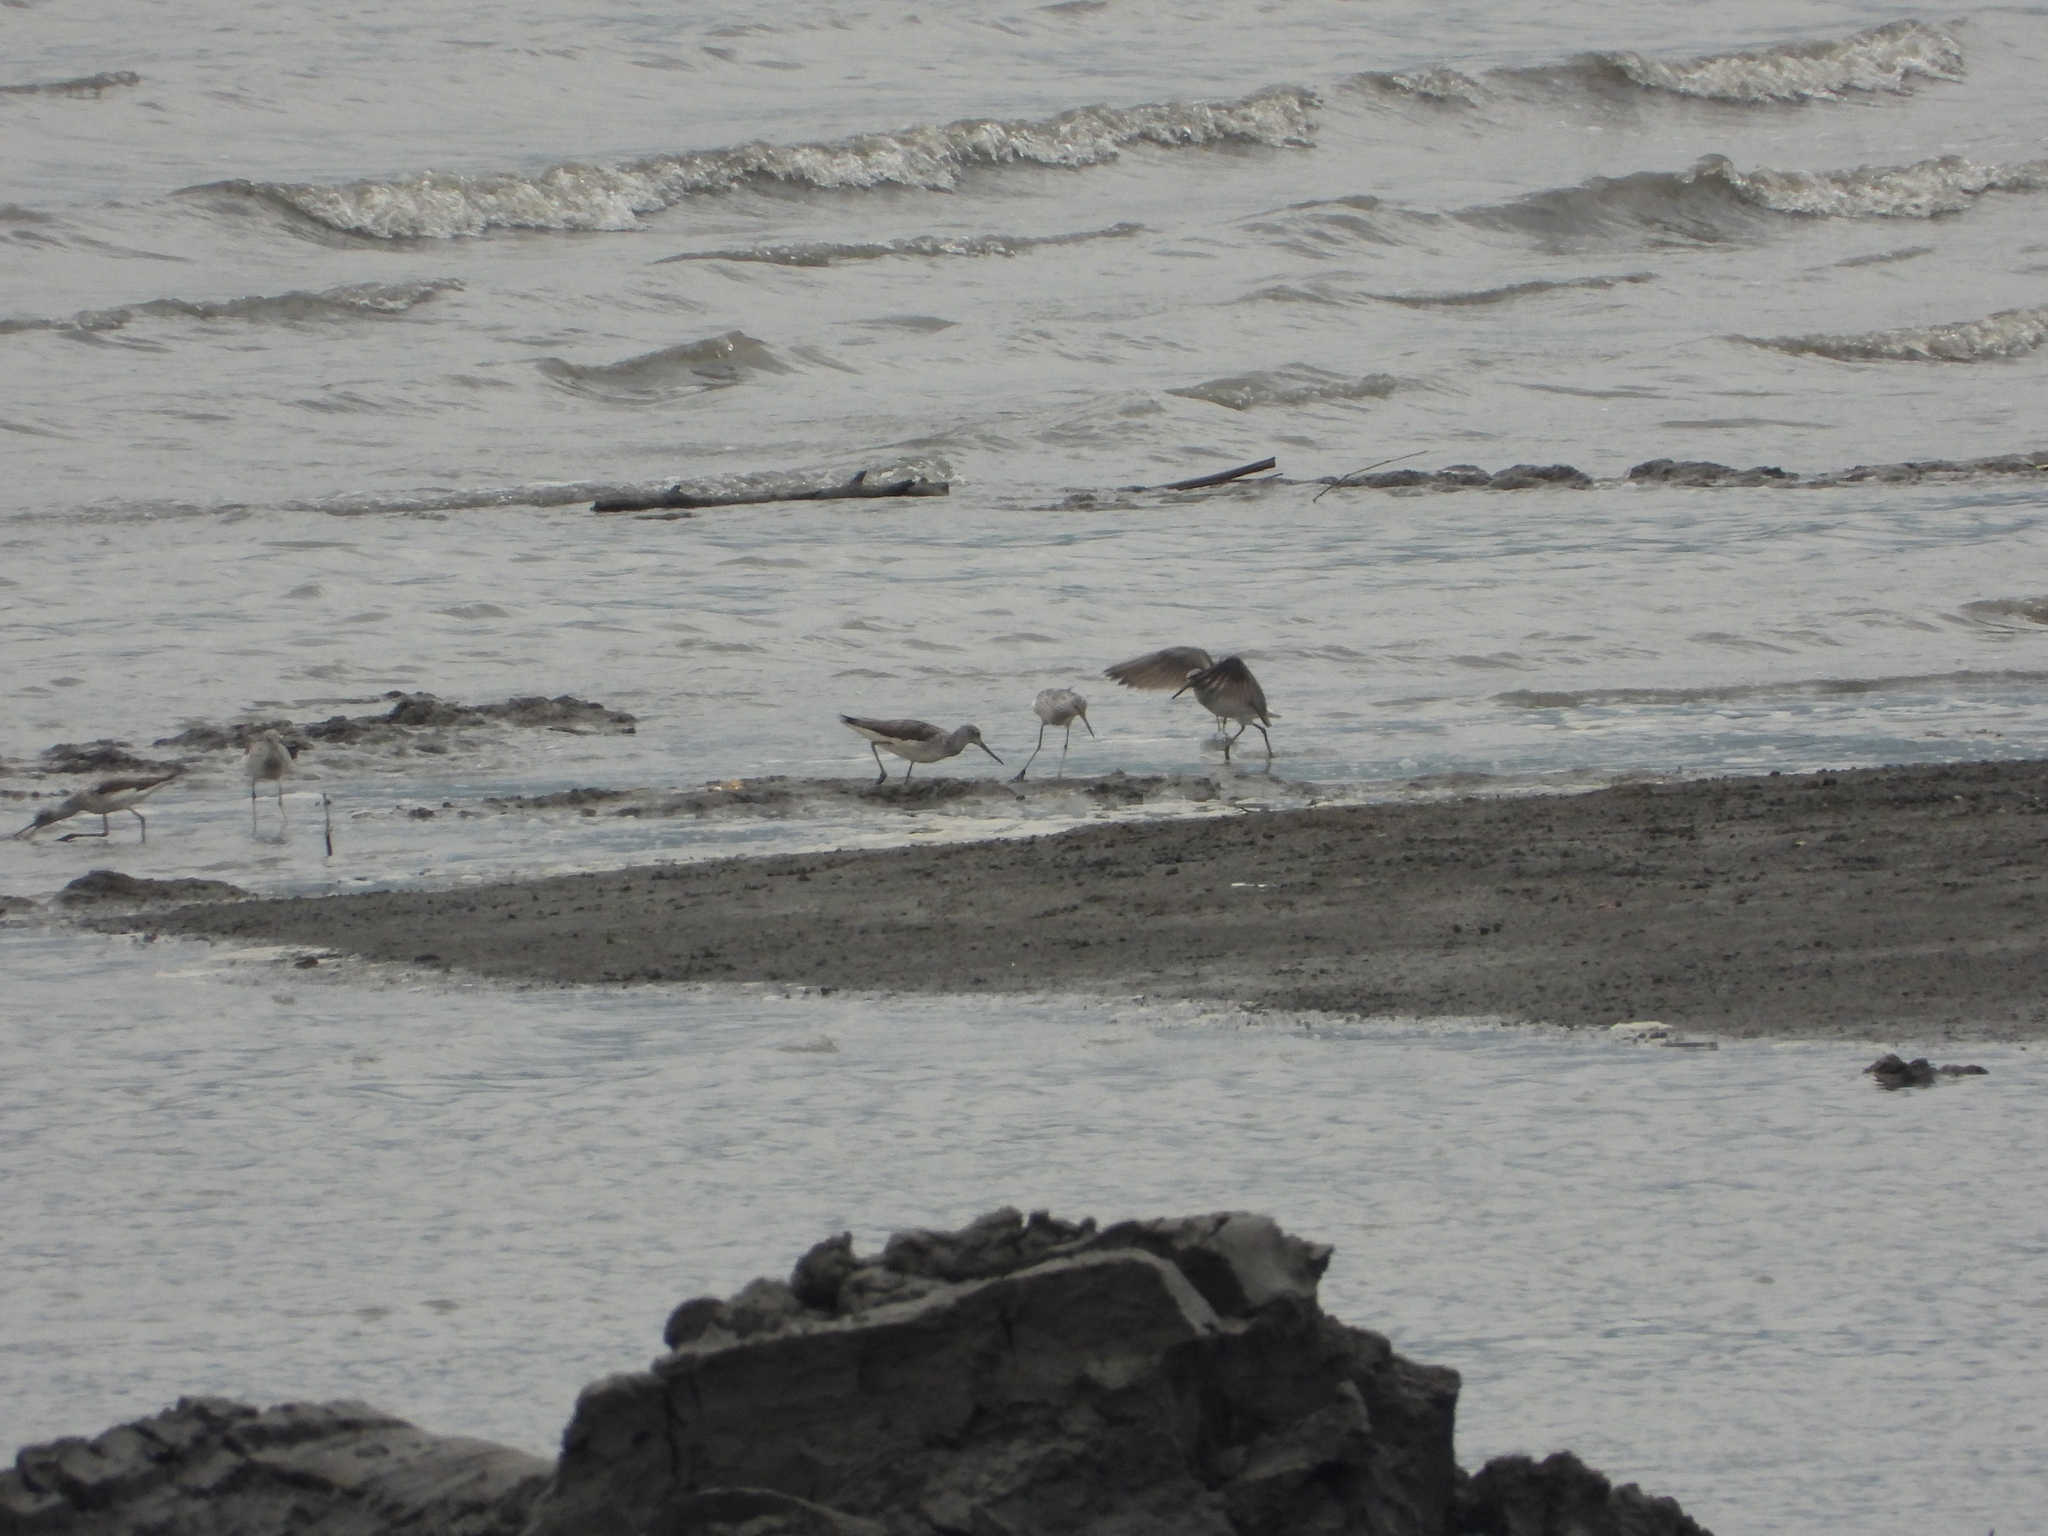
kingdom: Animalia
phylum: Chordata
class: Aves
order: Charadriiformes
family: Scolopacidae
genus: Tringa
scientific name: Tringa nebularia
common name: Common greenshank
